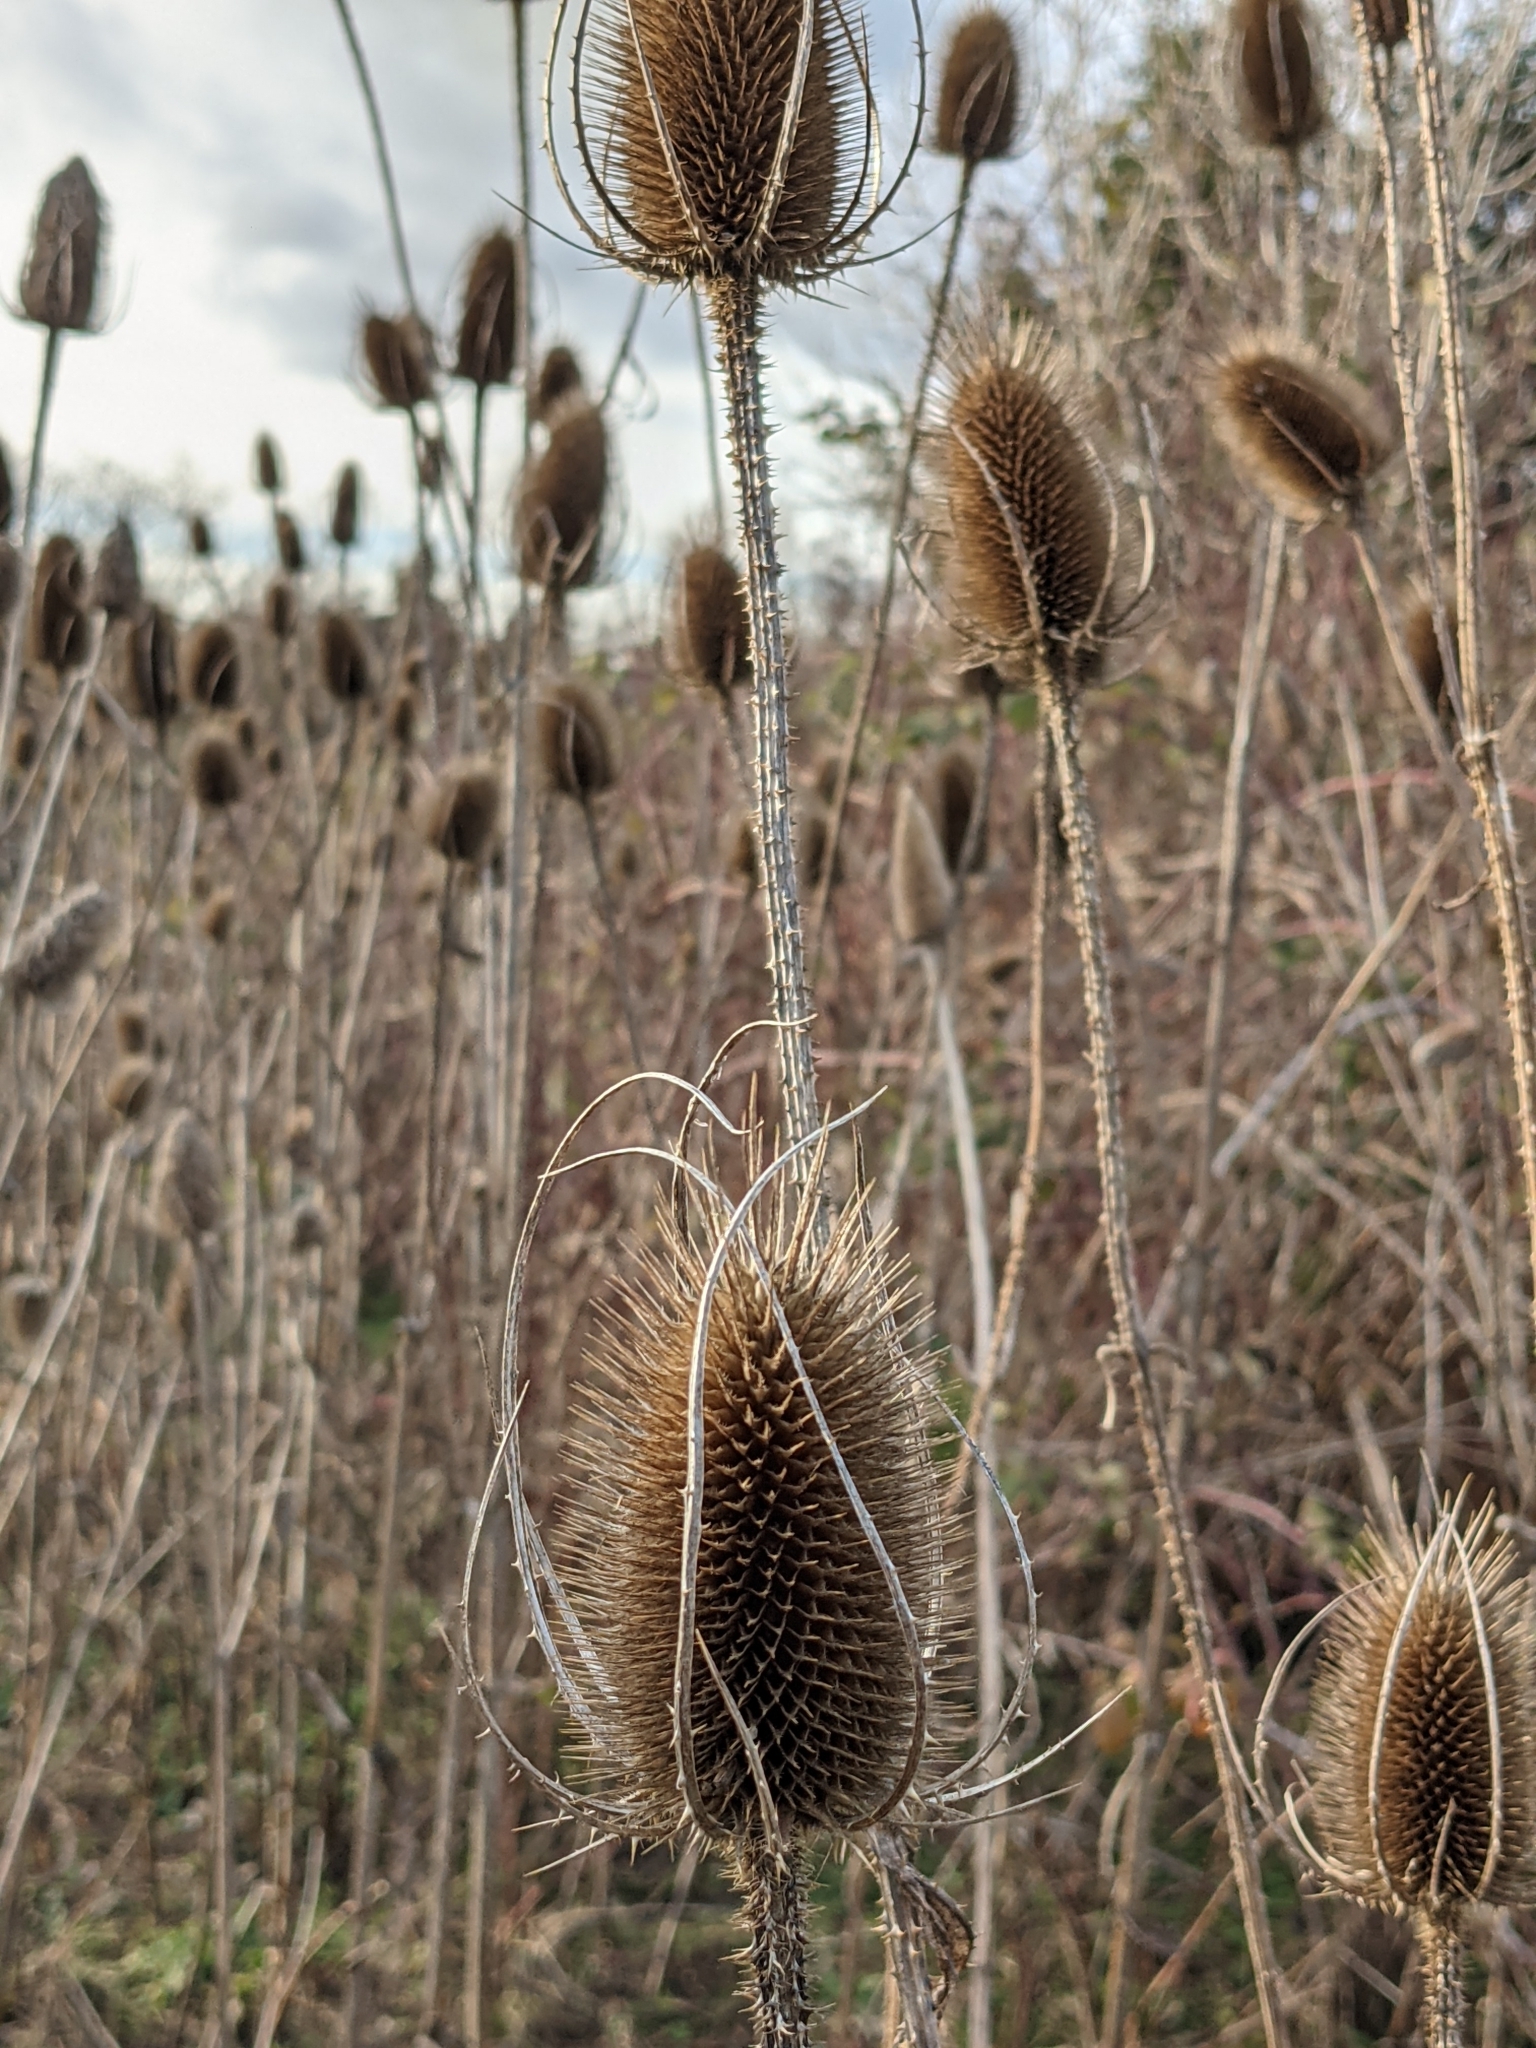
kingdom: Plantae
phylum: Tracheophyta
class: Magnoliopsida
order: Dipsacales
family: Caprifoliaceae
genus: Dipsacus
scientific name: Dipsacus fullonum
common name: Teasel
